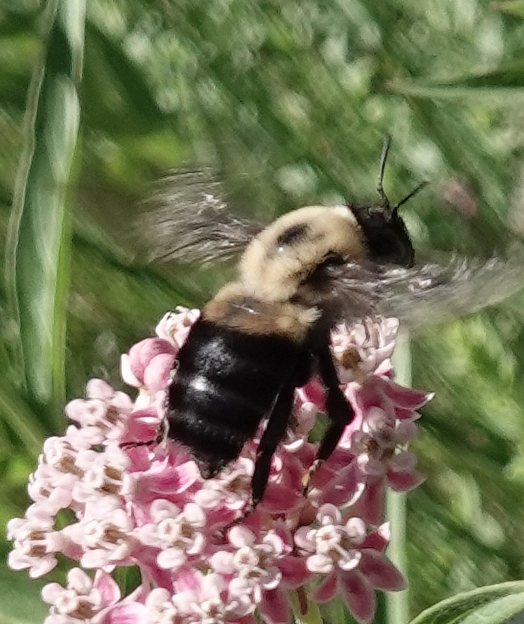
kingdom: Animalia
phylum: Arthropoda
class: Insecta
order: Hymenoptera
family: Apidae
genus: Bombus
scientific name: Bombus griseocollis
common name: Brown-belted bumble bee
